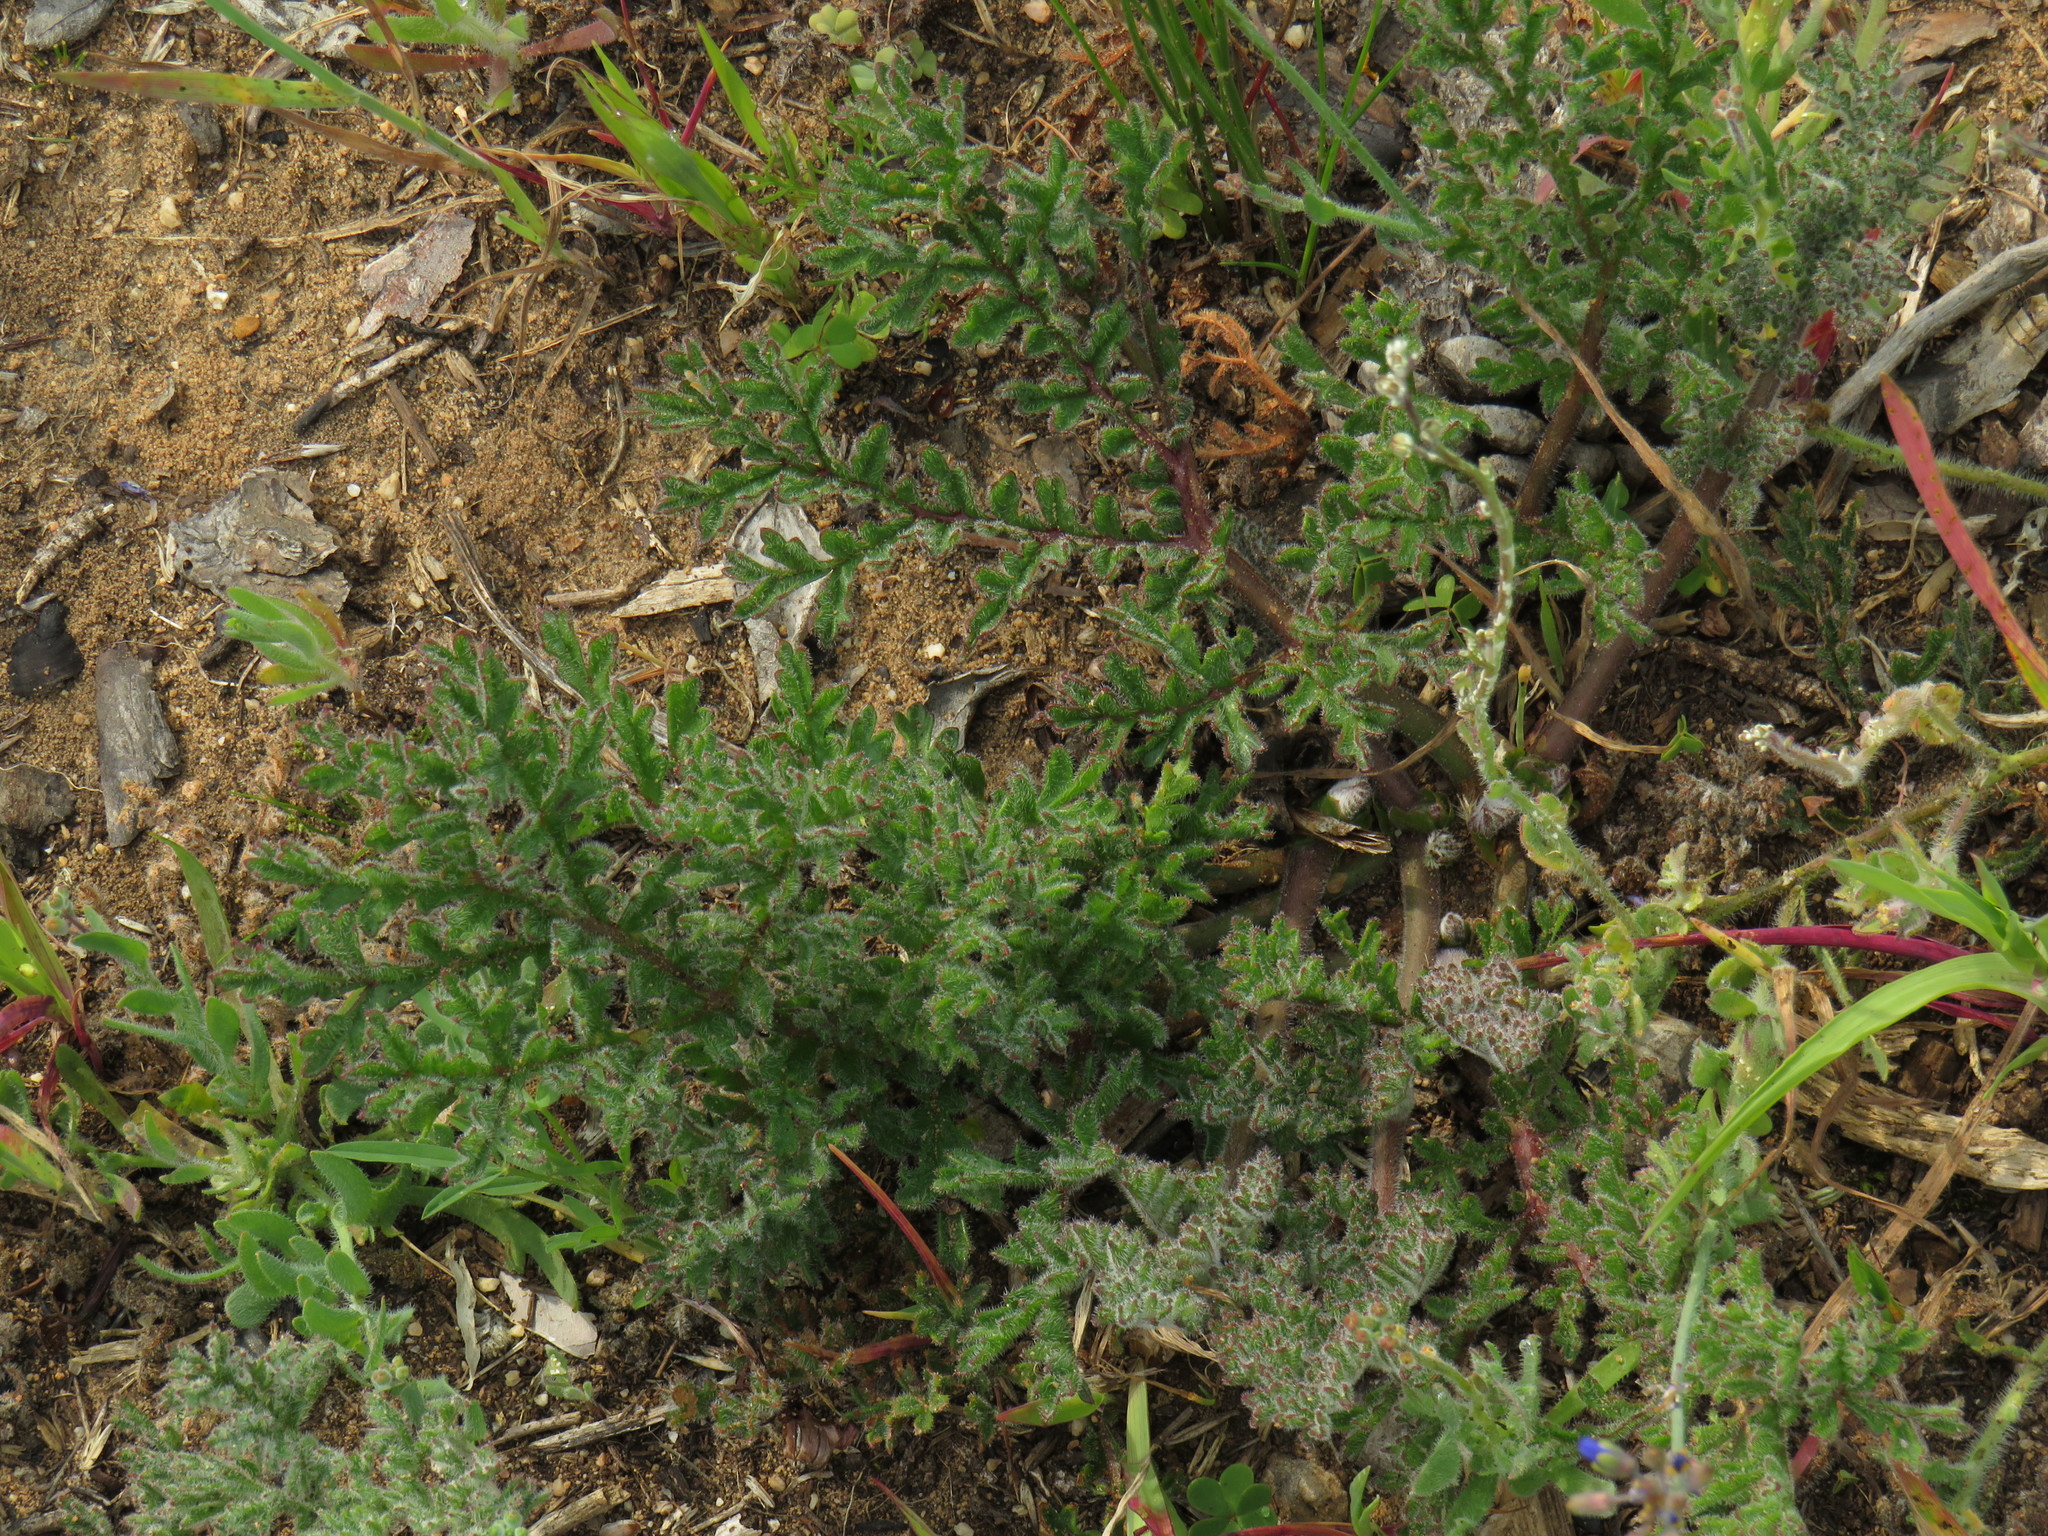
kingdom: Plantae
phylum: Tracheophyta
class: Magnoliopsida
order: Geraniales
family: Geraniaceae
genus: Pelargonium
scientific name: Pelargonium triste
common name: Night-scent pelargonium
